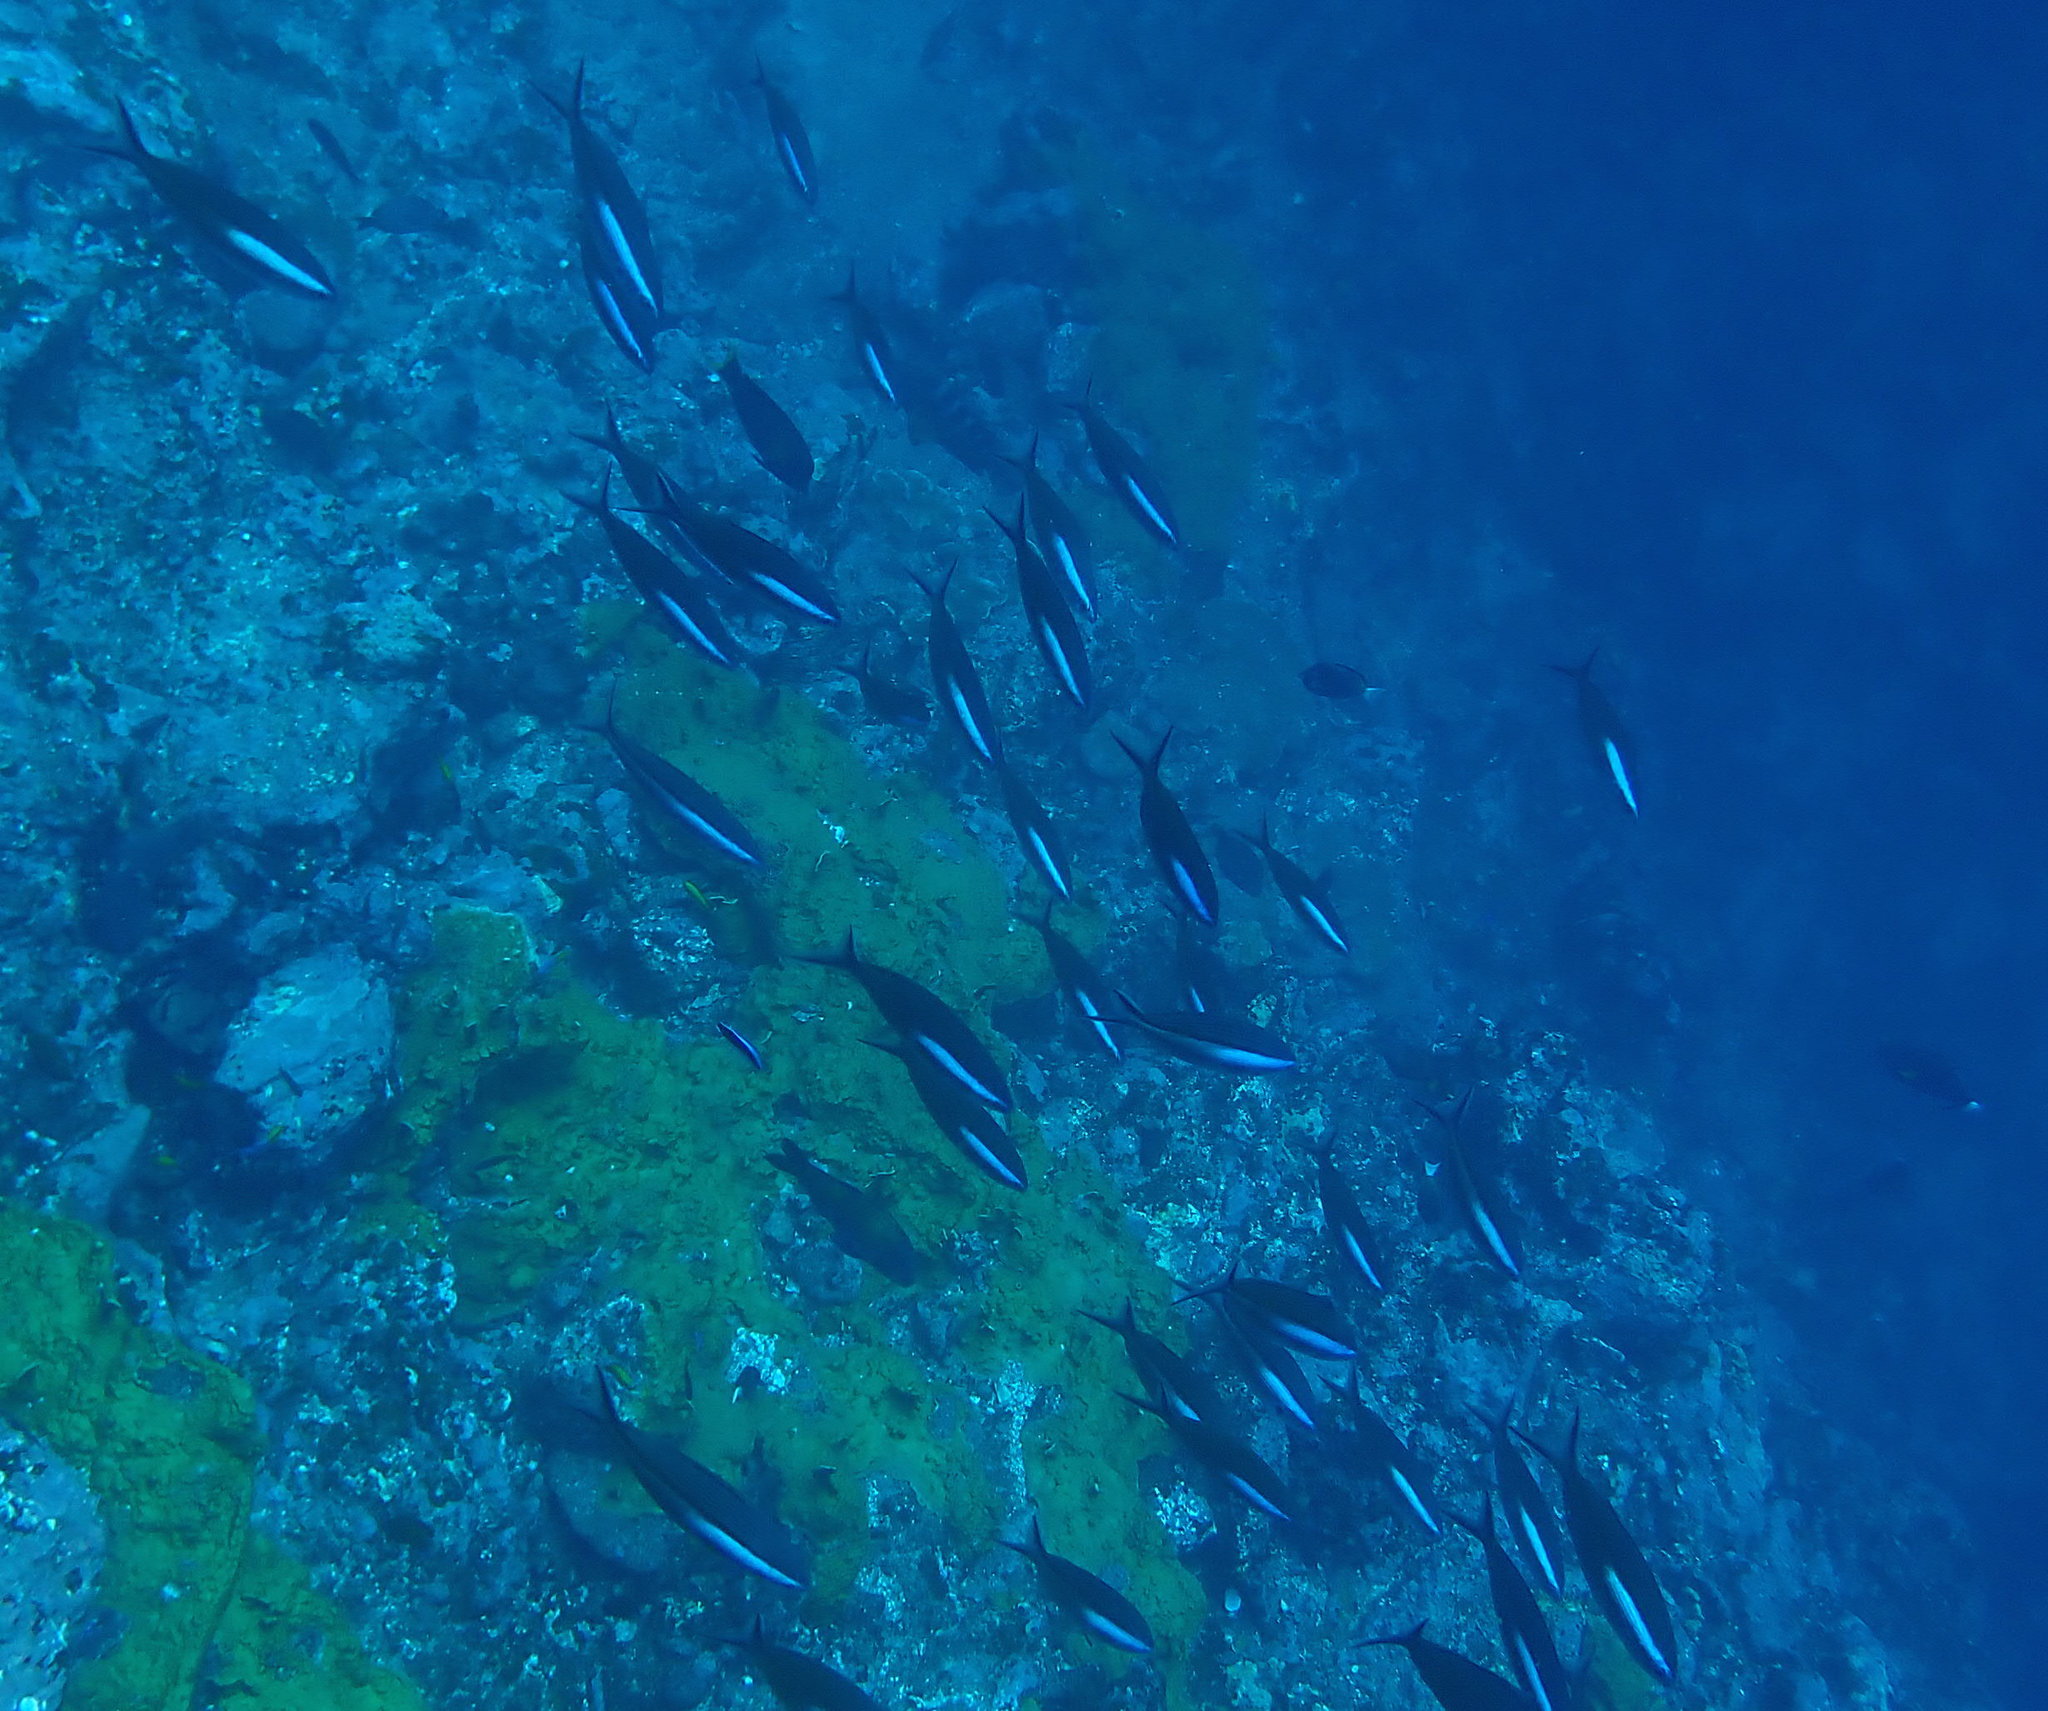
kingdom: Animalia
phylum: Chordata
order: Perciformes
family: Caesionidae
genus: Pterocaesio
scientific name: Pterocaesio tile
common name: Dark-banded fusilier
